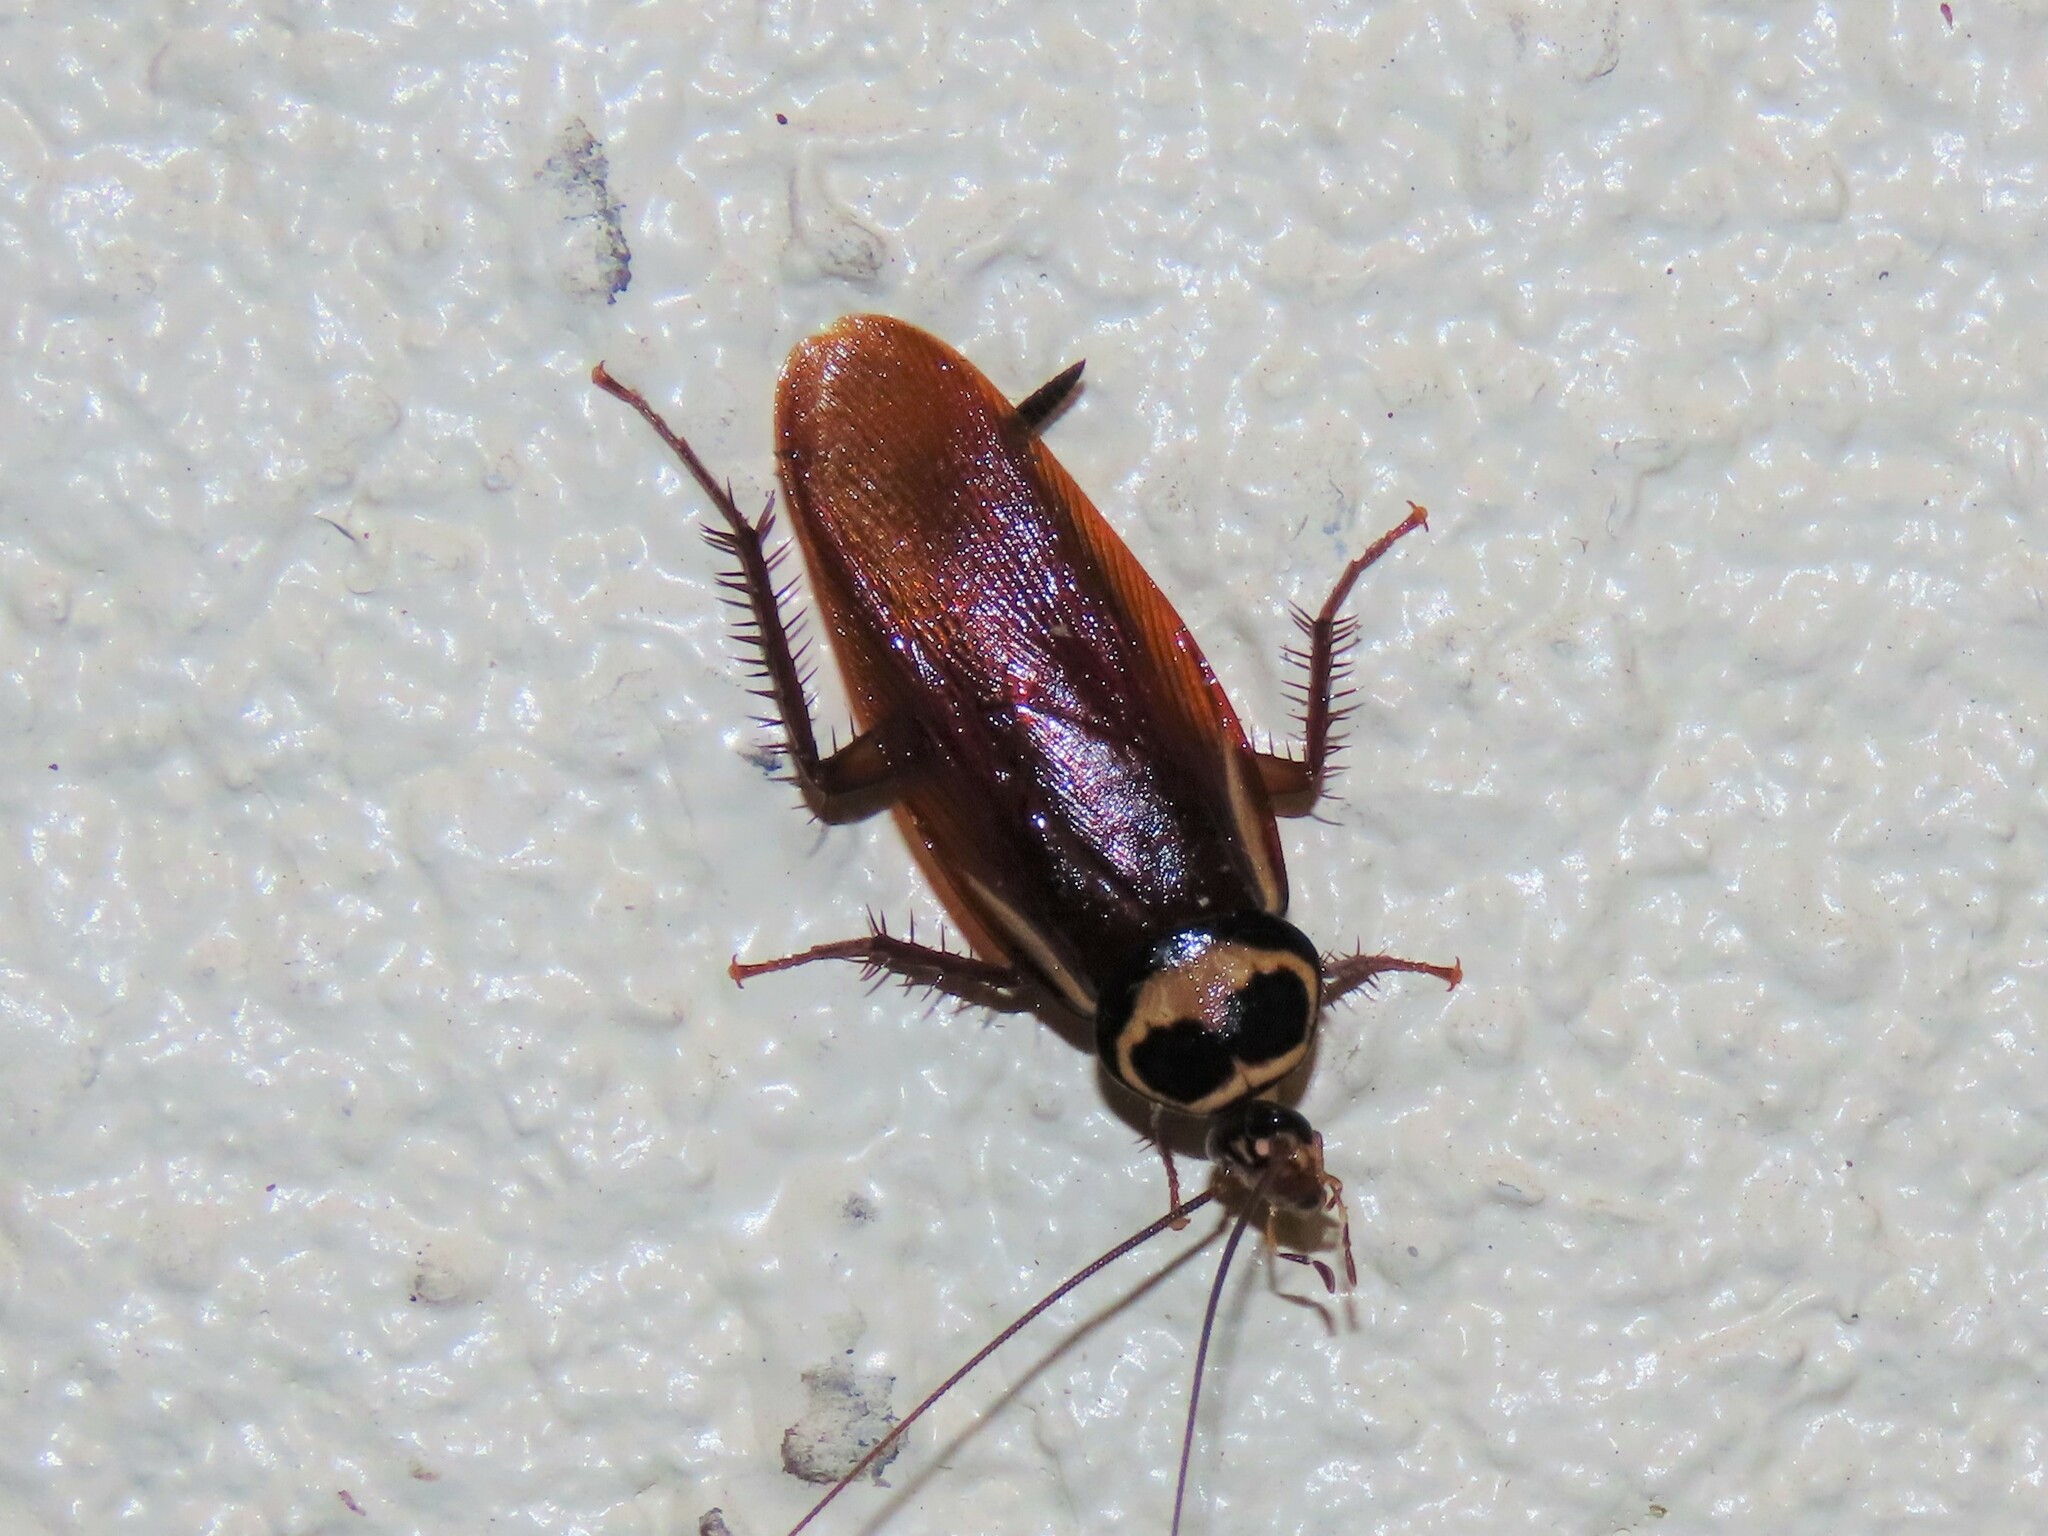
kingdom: Animalia
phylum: Arthropoda
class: Insecta
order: Blattodea
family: Blattidae
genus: Periplaneta
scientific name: Periplaneta australasiae
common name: Australian cockroach
